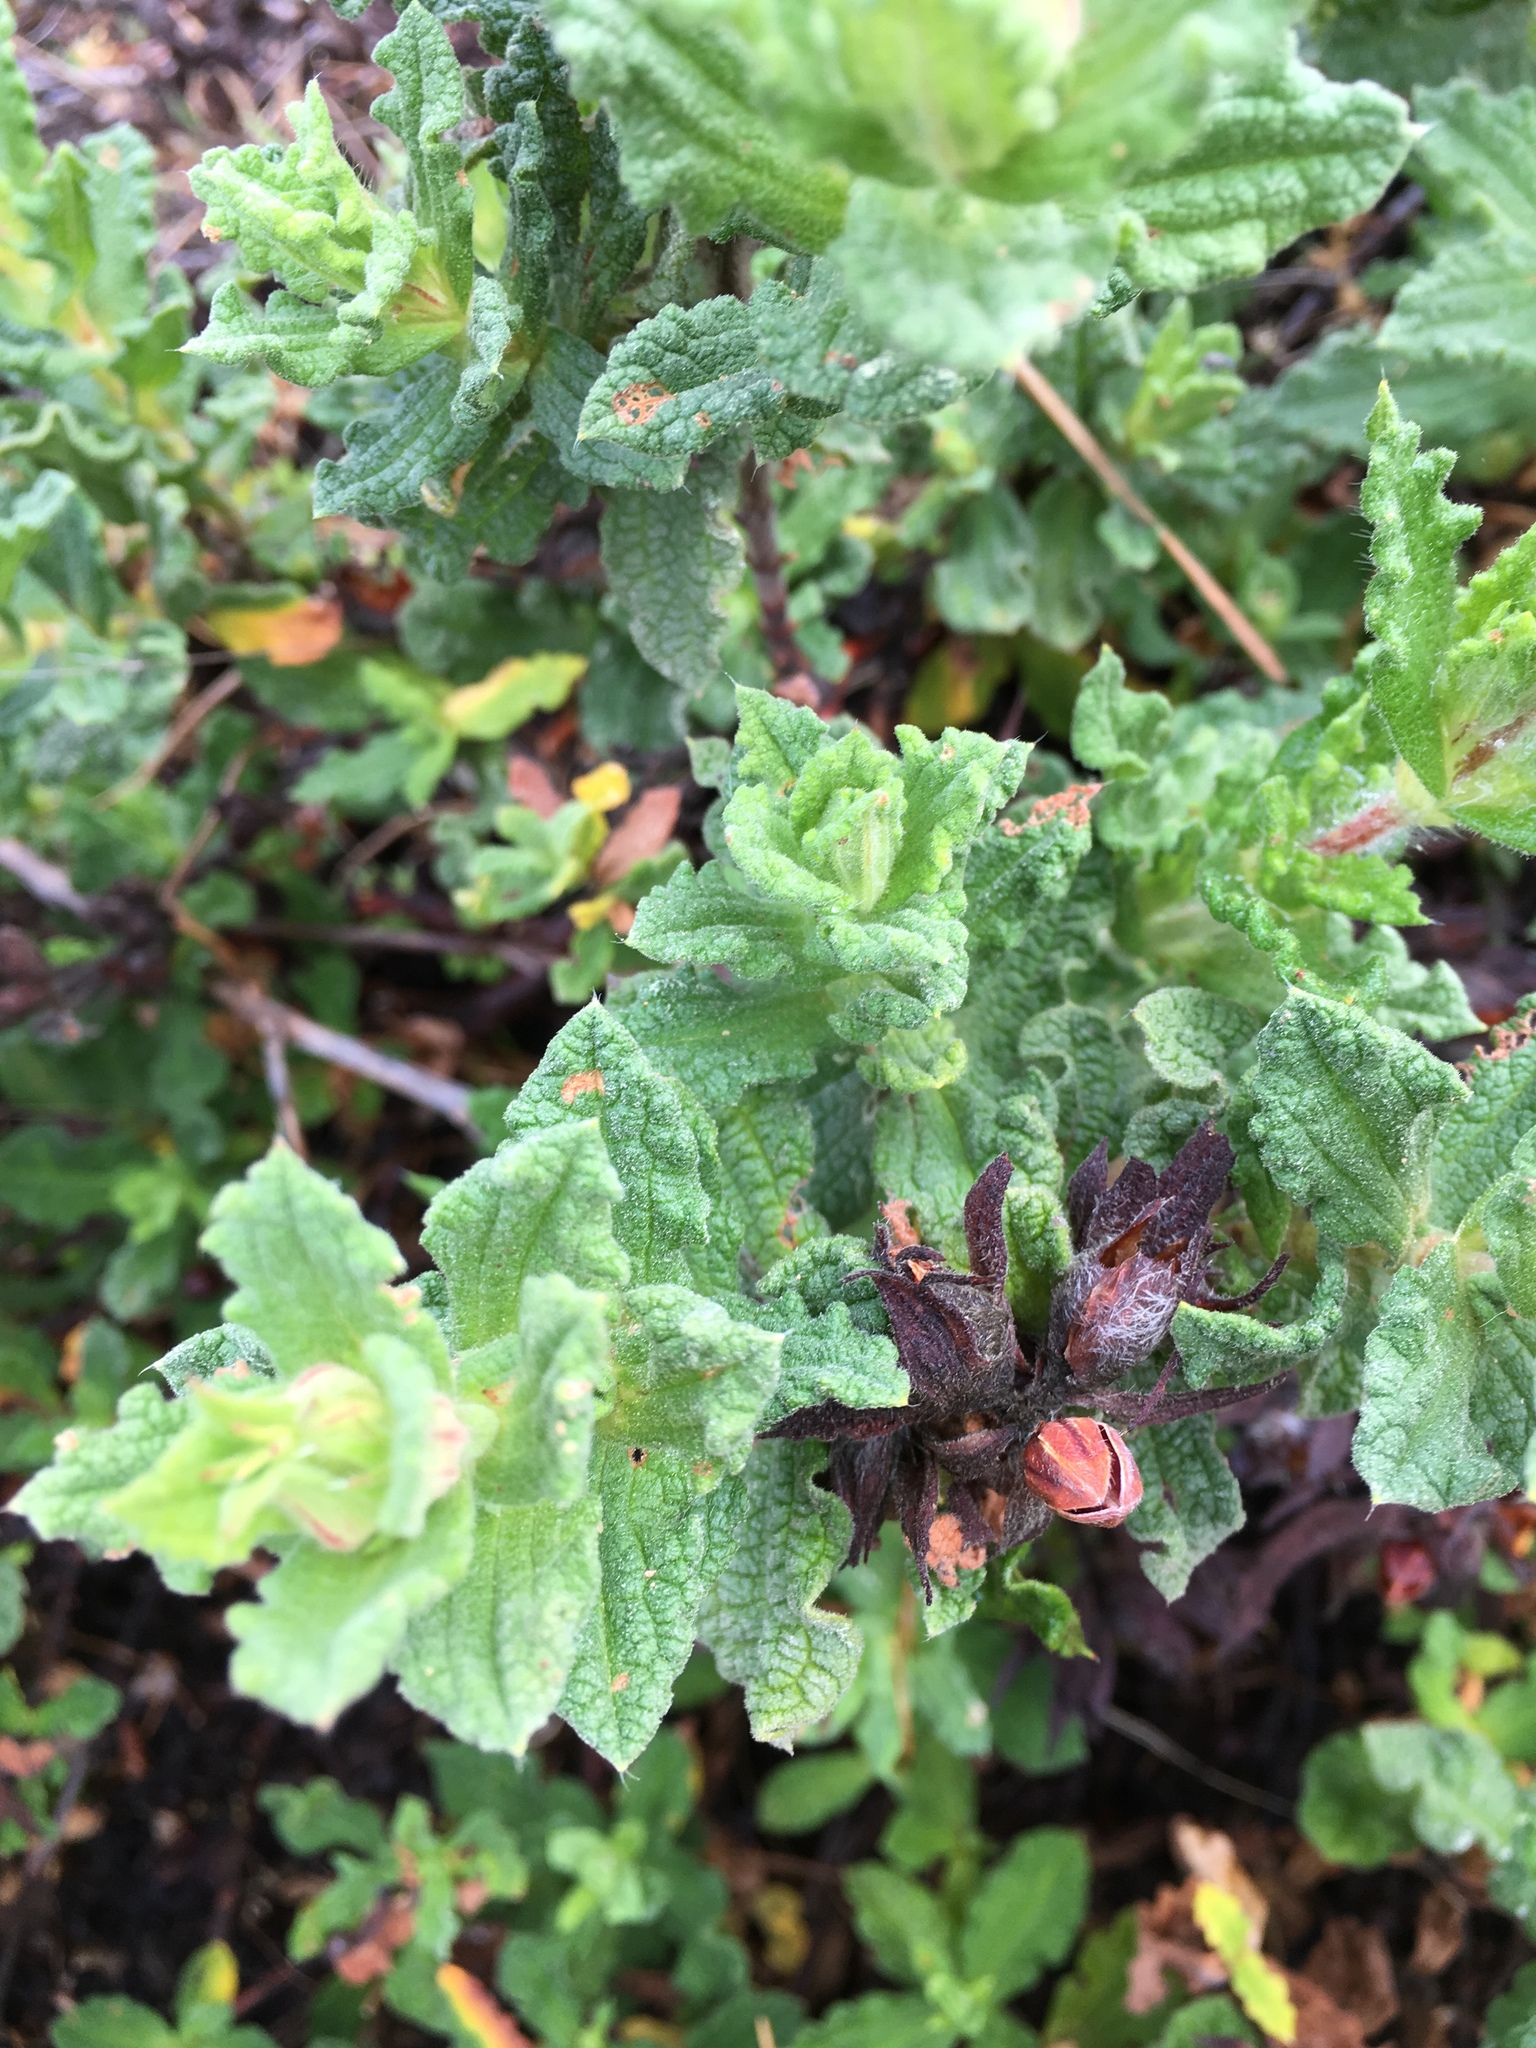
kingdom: Plantae
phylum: Tracheophyta
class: Magnoliopsida
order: Malvales
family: Cistaceae
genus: Cistus
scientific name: Cistus crispus
